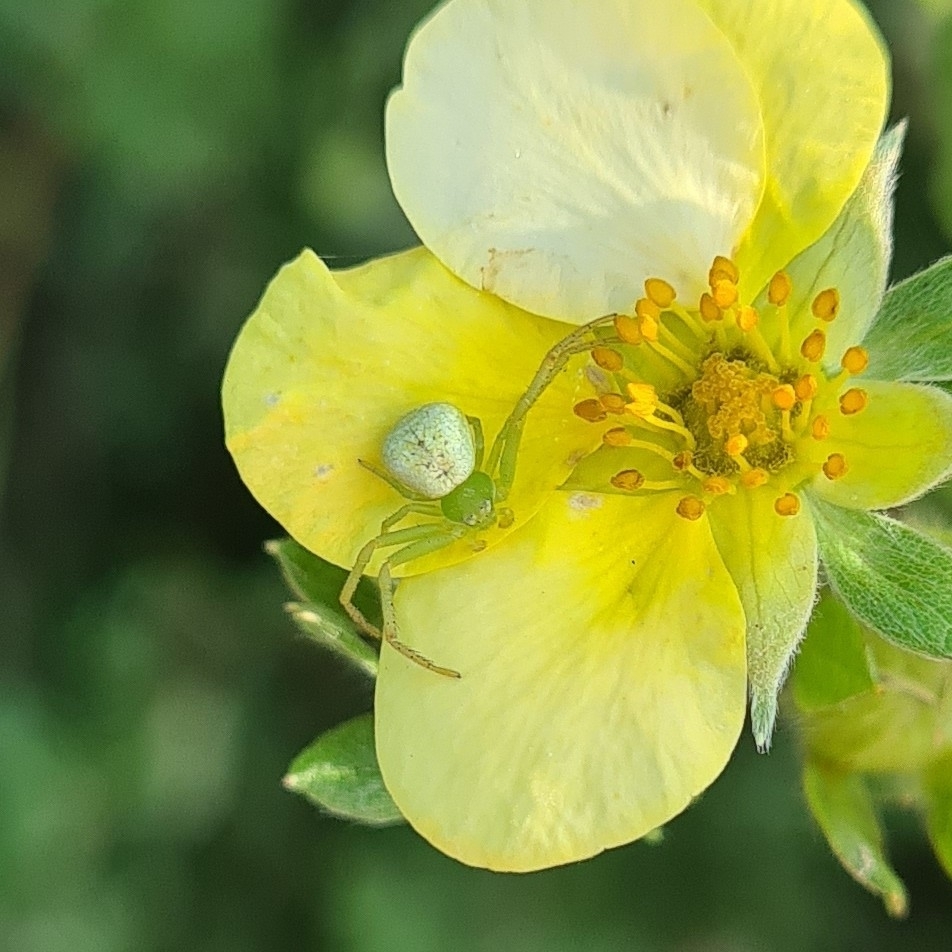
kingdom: Animalia
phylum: Arthropoda
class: Arachnida
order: Araneae
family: Thomisidae
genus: Ebrechtella
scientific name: Ebrechtella tricuspidata
